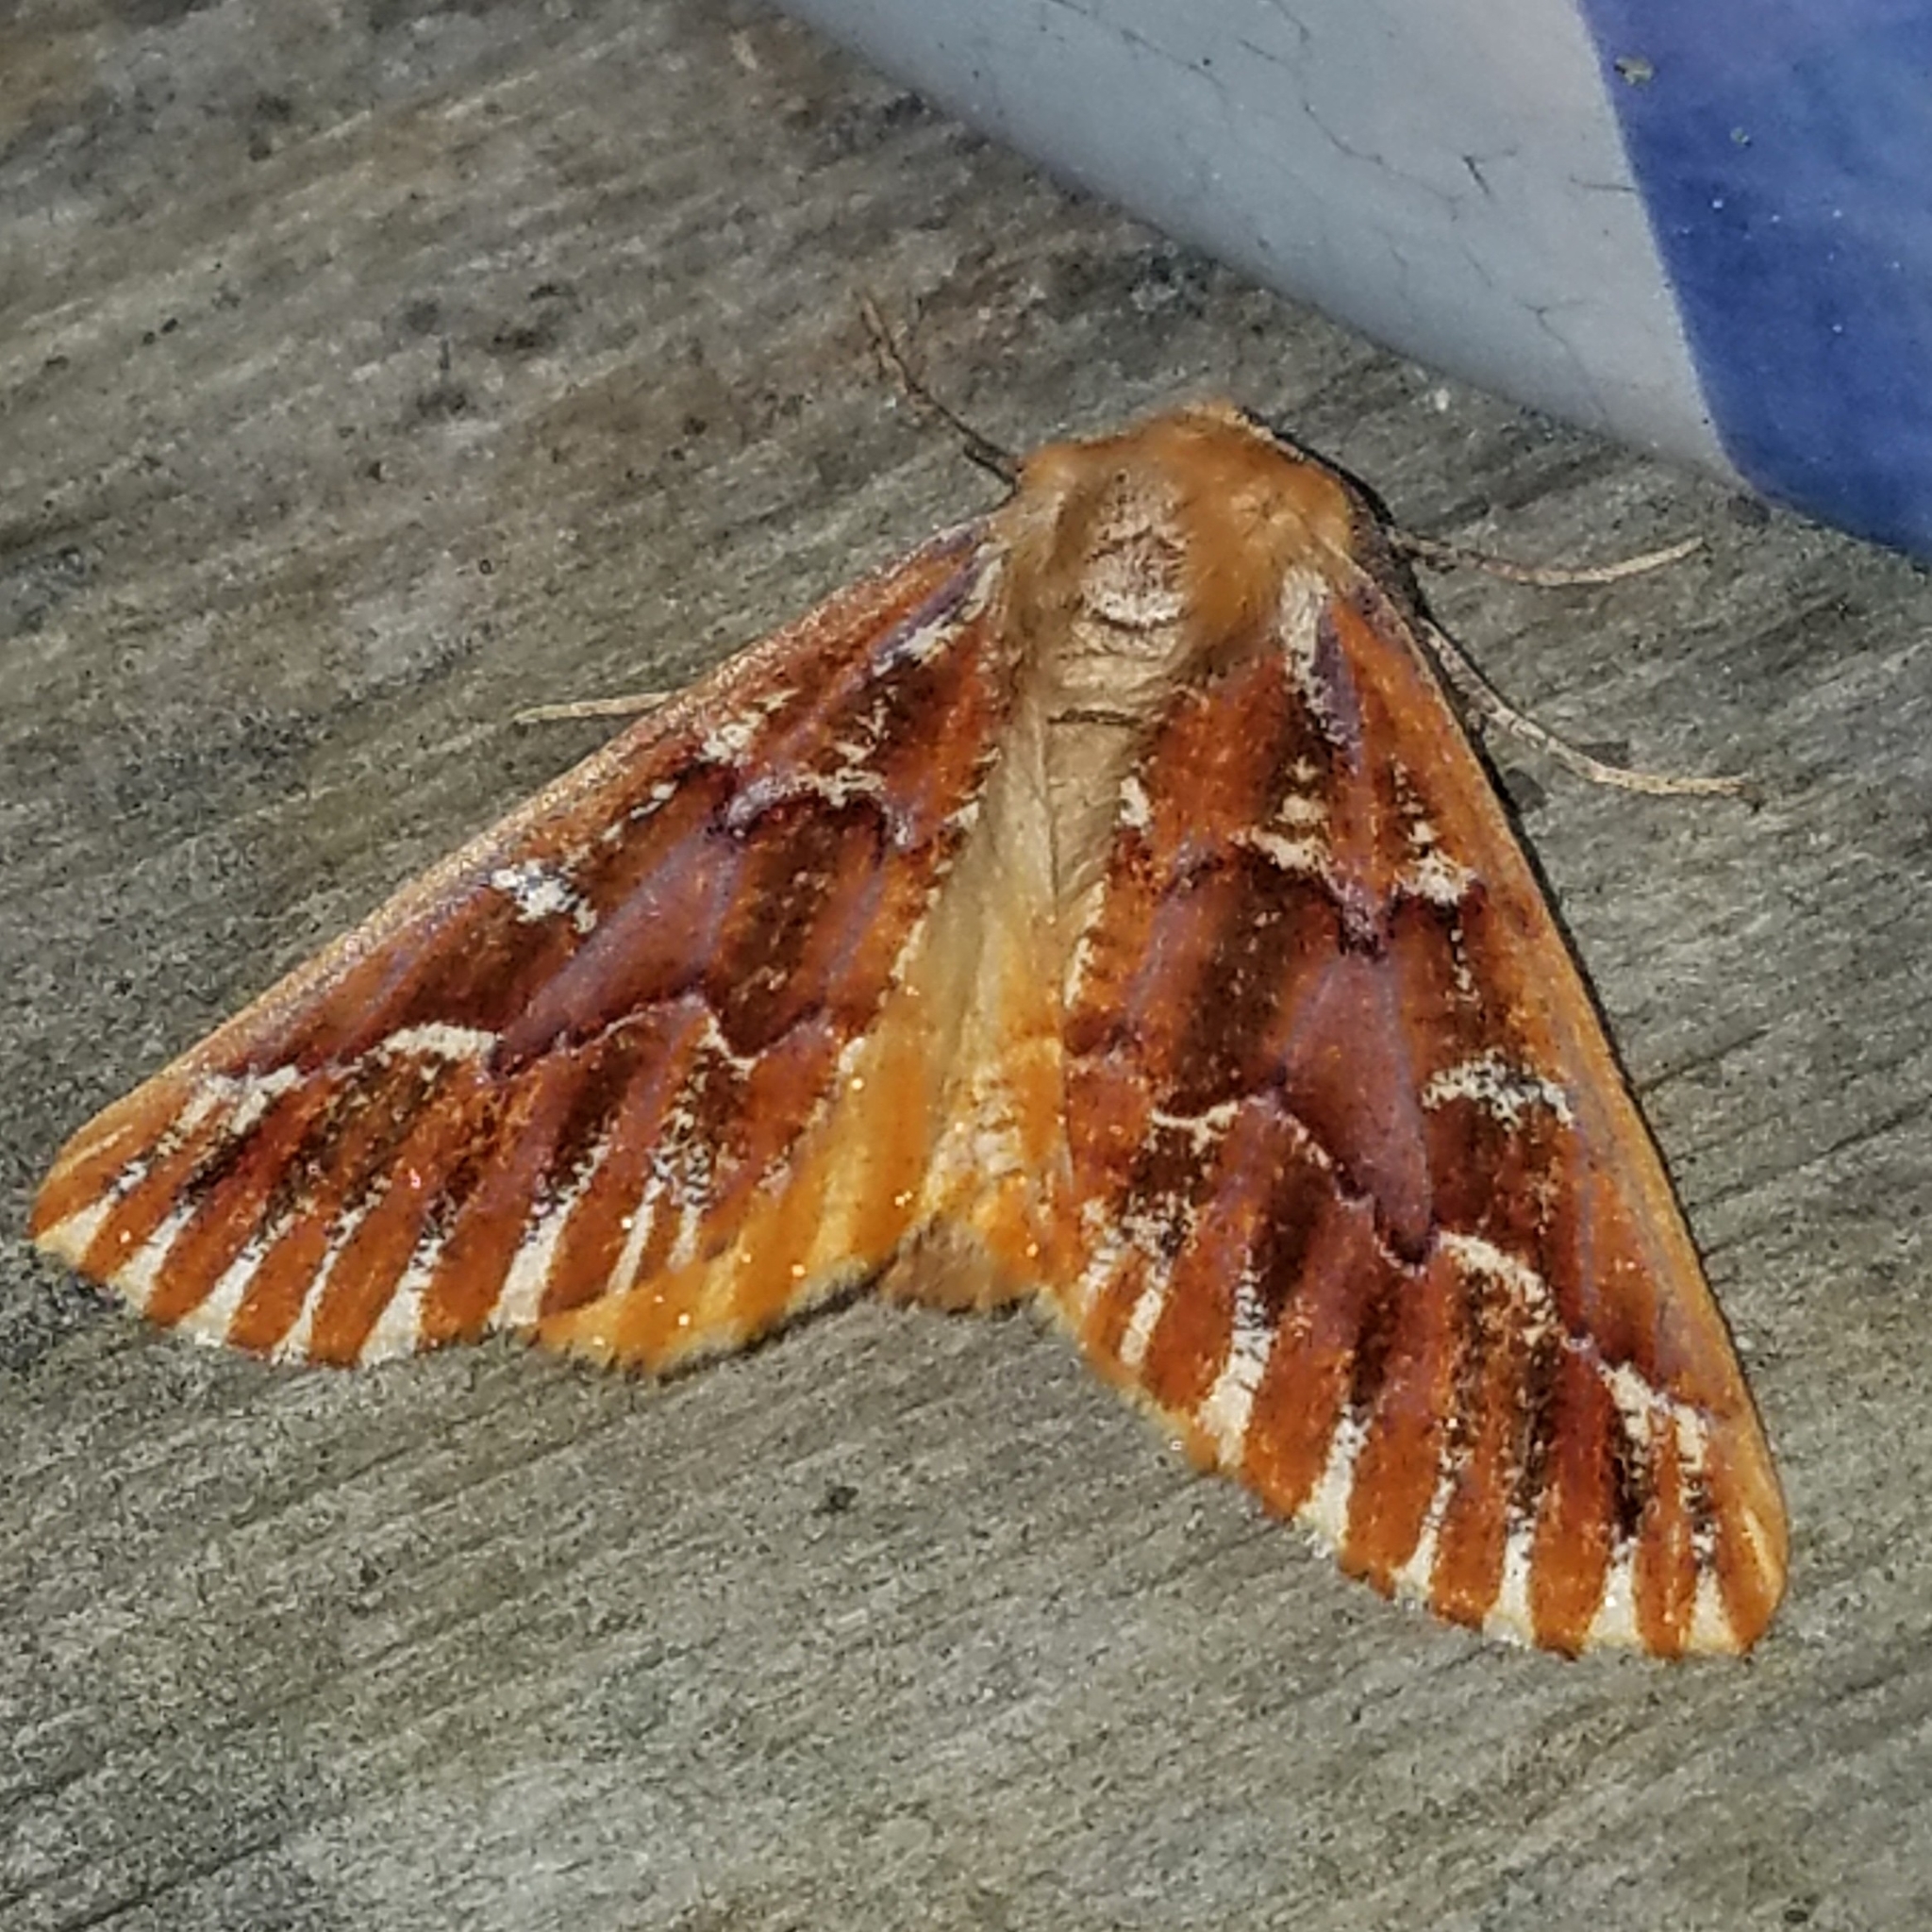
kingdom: Animalia
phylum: Arthropoda
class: Insecta
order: Lepidoptera
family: Geometridae
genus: Caripeta
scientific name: Caripeta aequaliaria
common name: Red girdle moth
